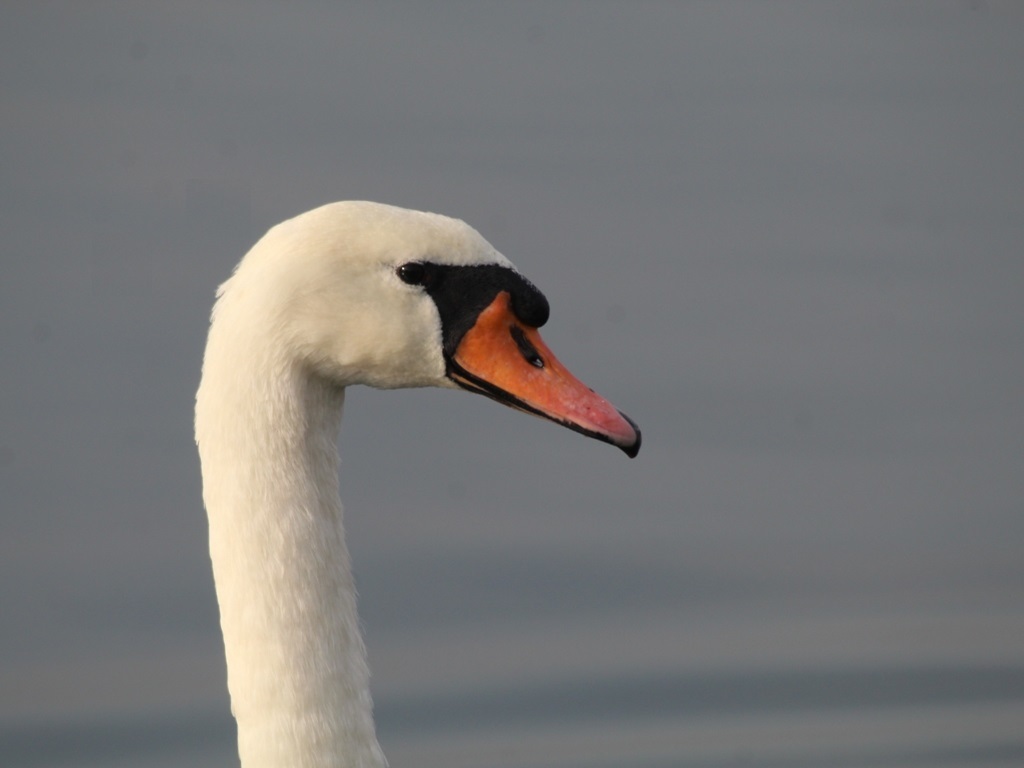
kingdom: Animalia
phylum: Chordata
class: Aves
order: Anseriformes
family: Anatidae
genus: Cygnus
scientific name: Cygnus olor
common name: Mute swan
